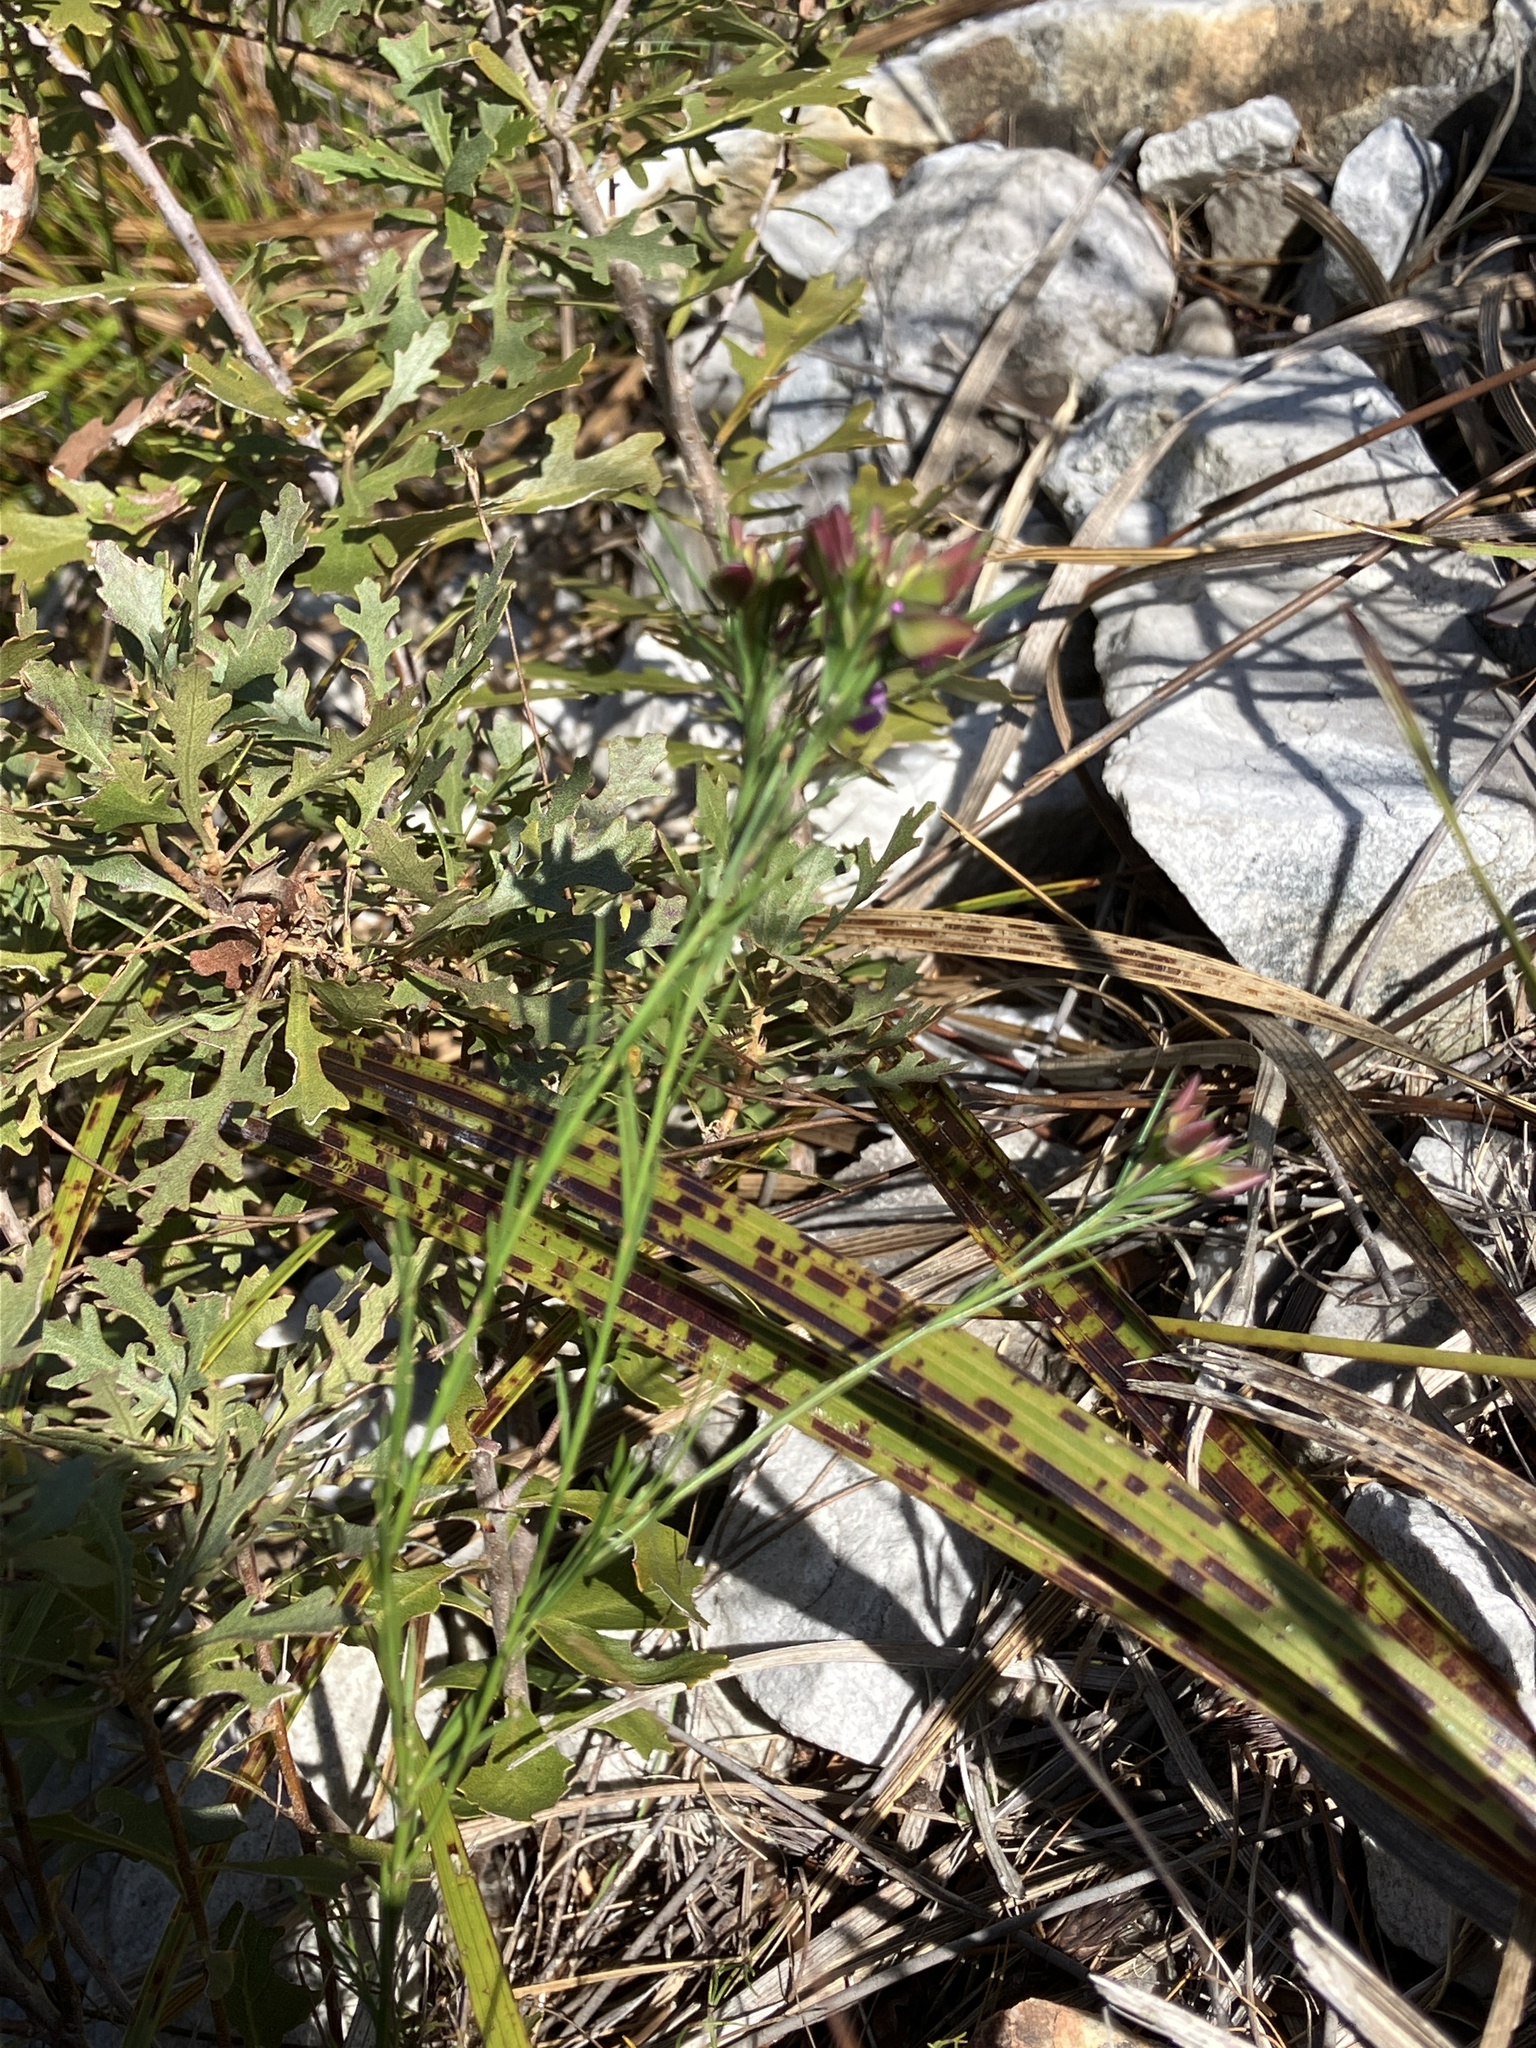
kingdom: Plantae
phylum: Tracheophyta
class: Magnoliopsida
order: Fabales
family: Polygalaceae
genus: Polygala
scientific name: Polygala umbellata
